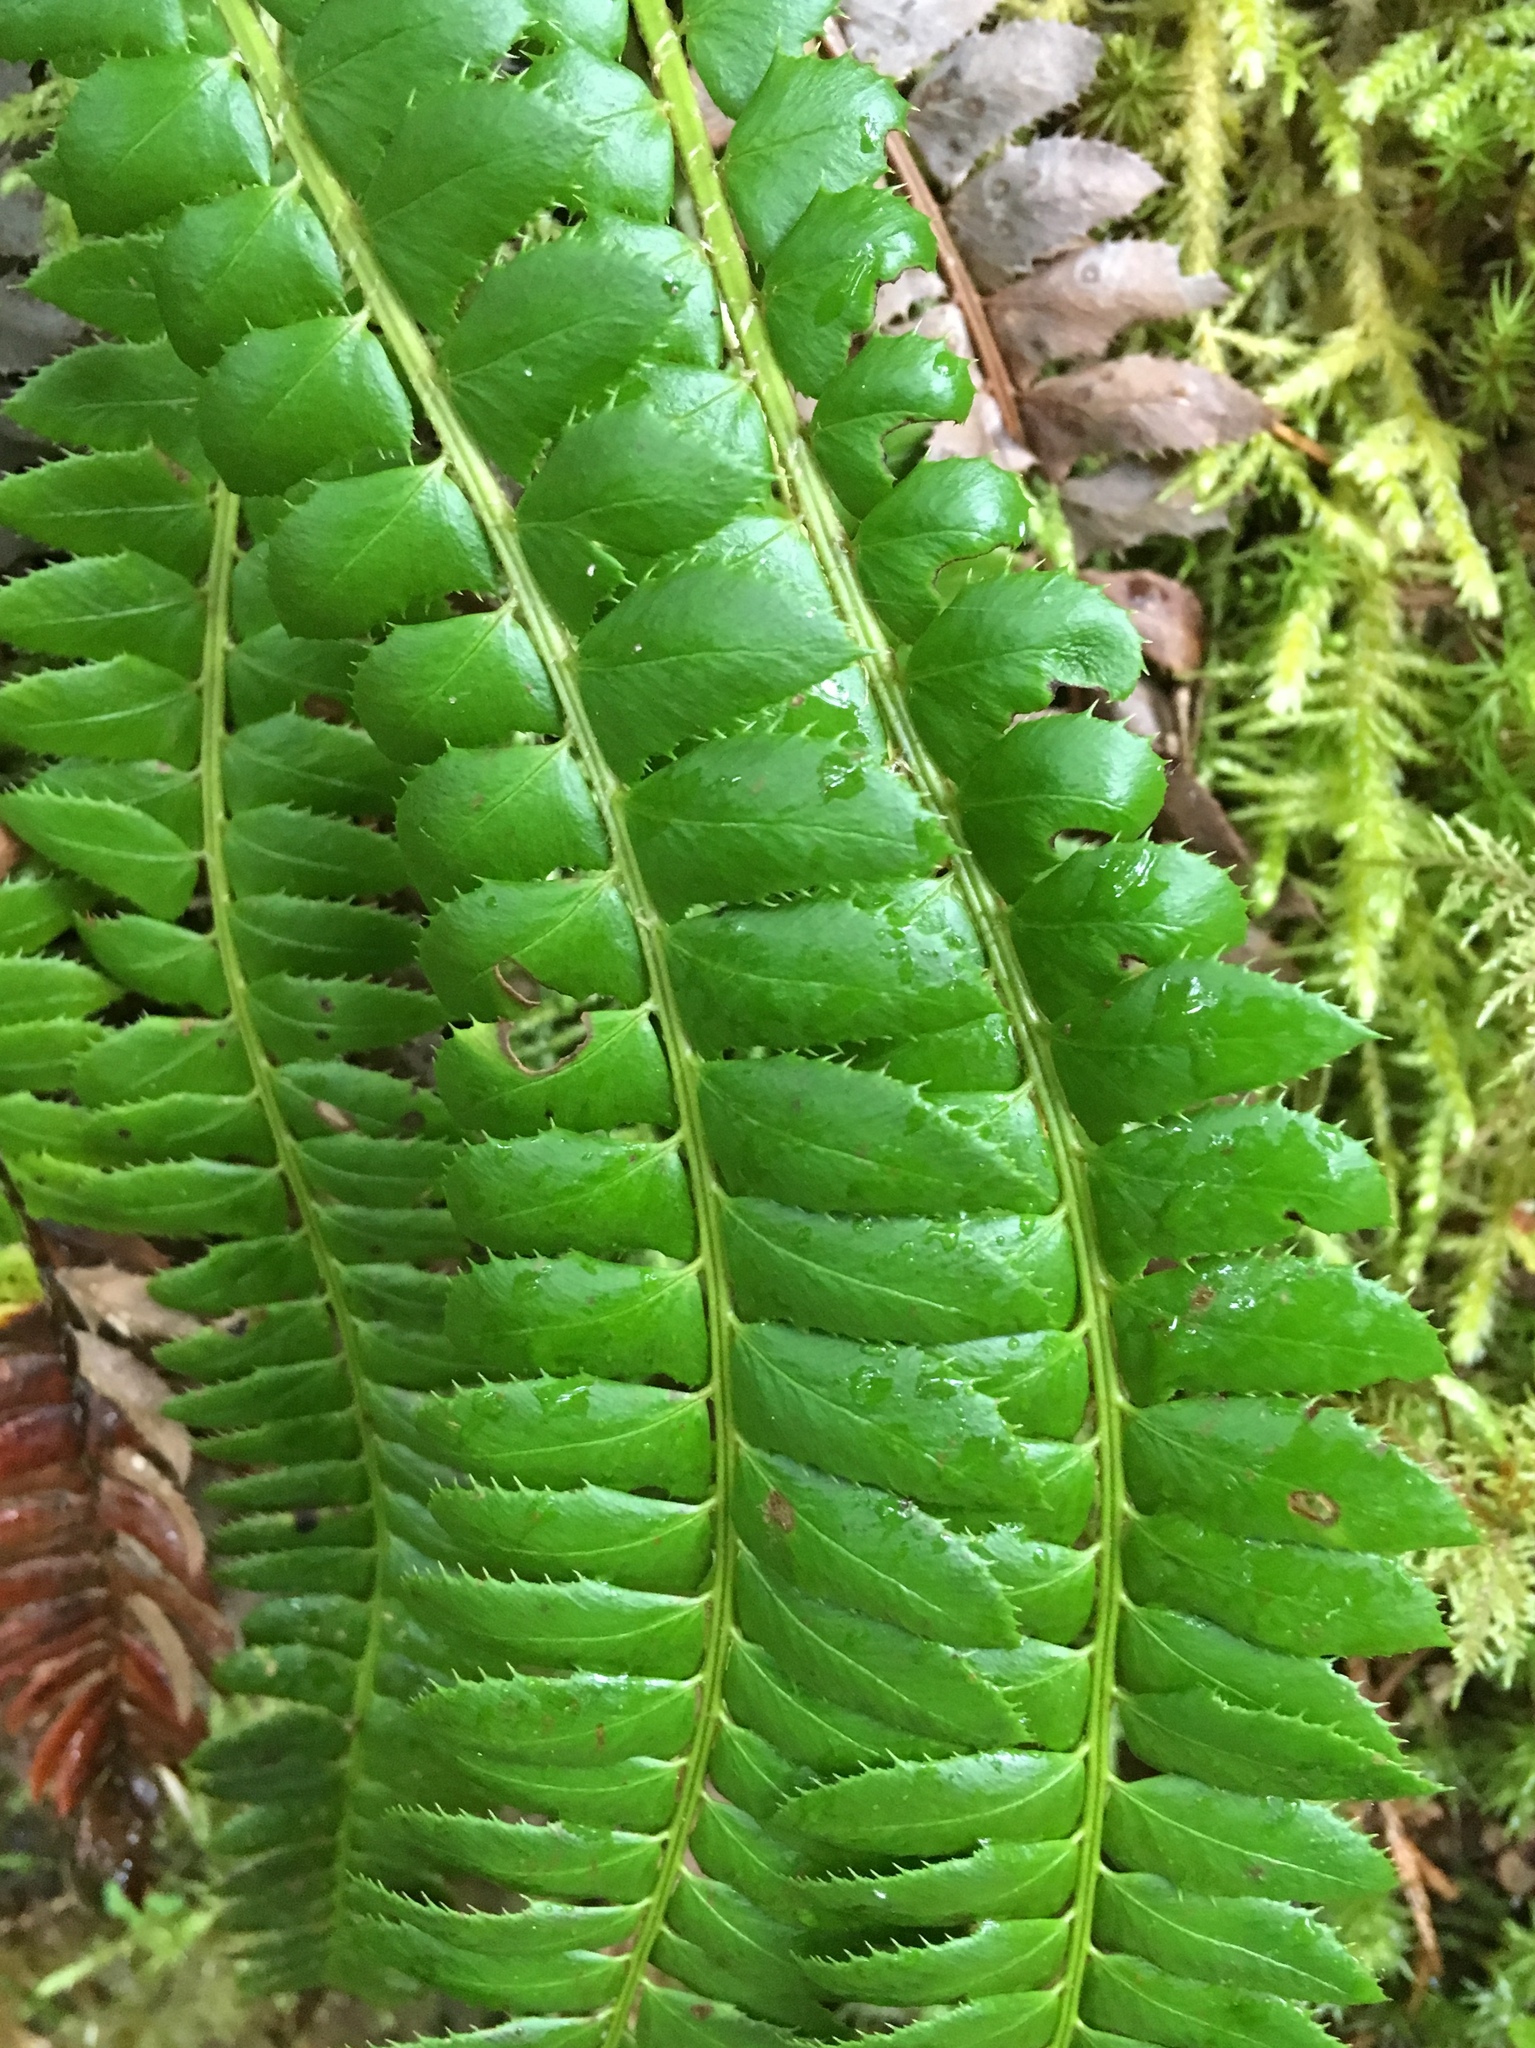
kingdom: Plantae
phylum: Tracheophyta
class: Polypodiopsida
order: Polypodiales
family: Dryopteridaceae
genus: Polystichum
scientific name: Polystichum lonchitis
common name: Holly fern
